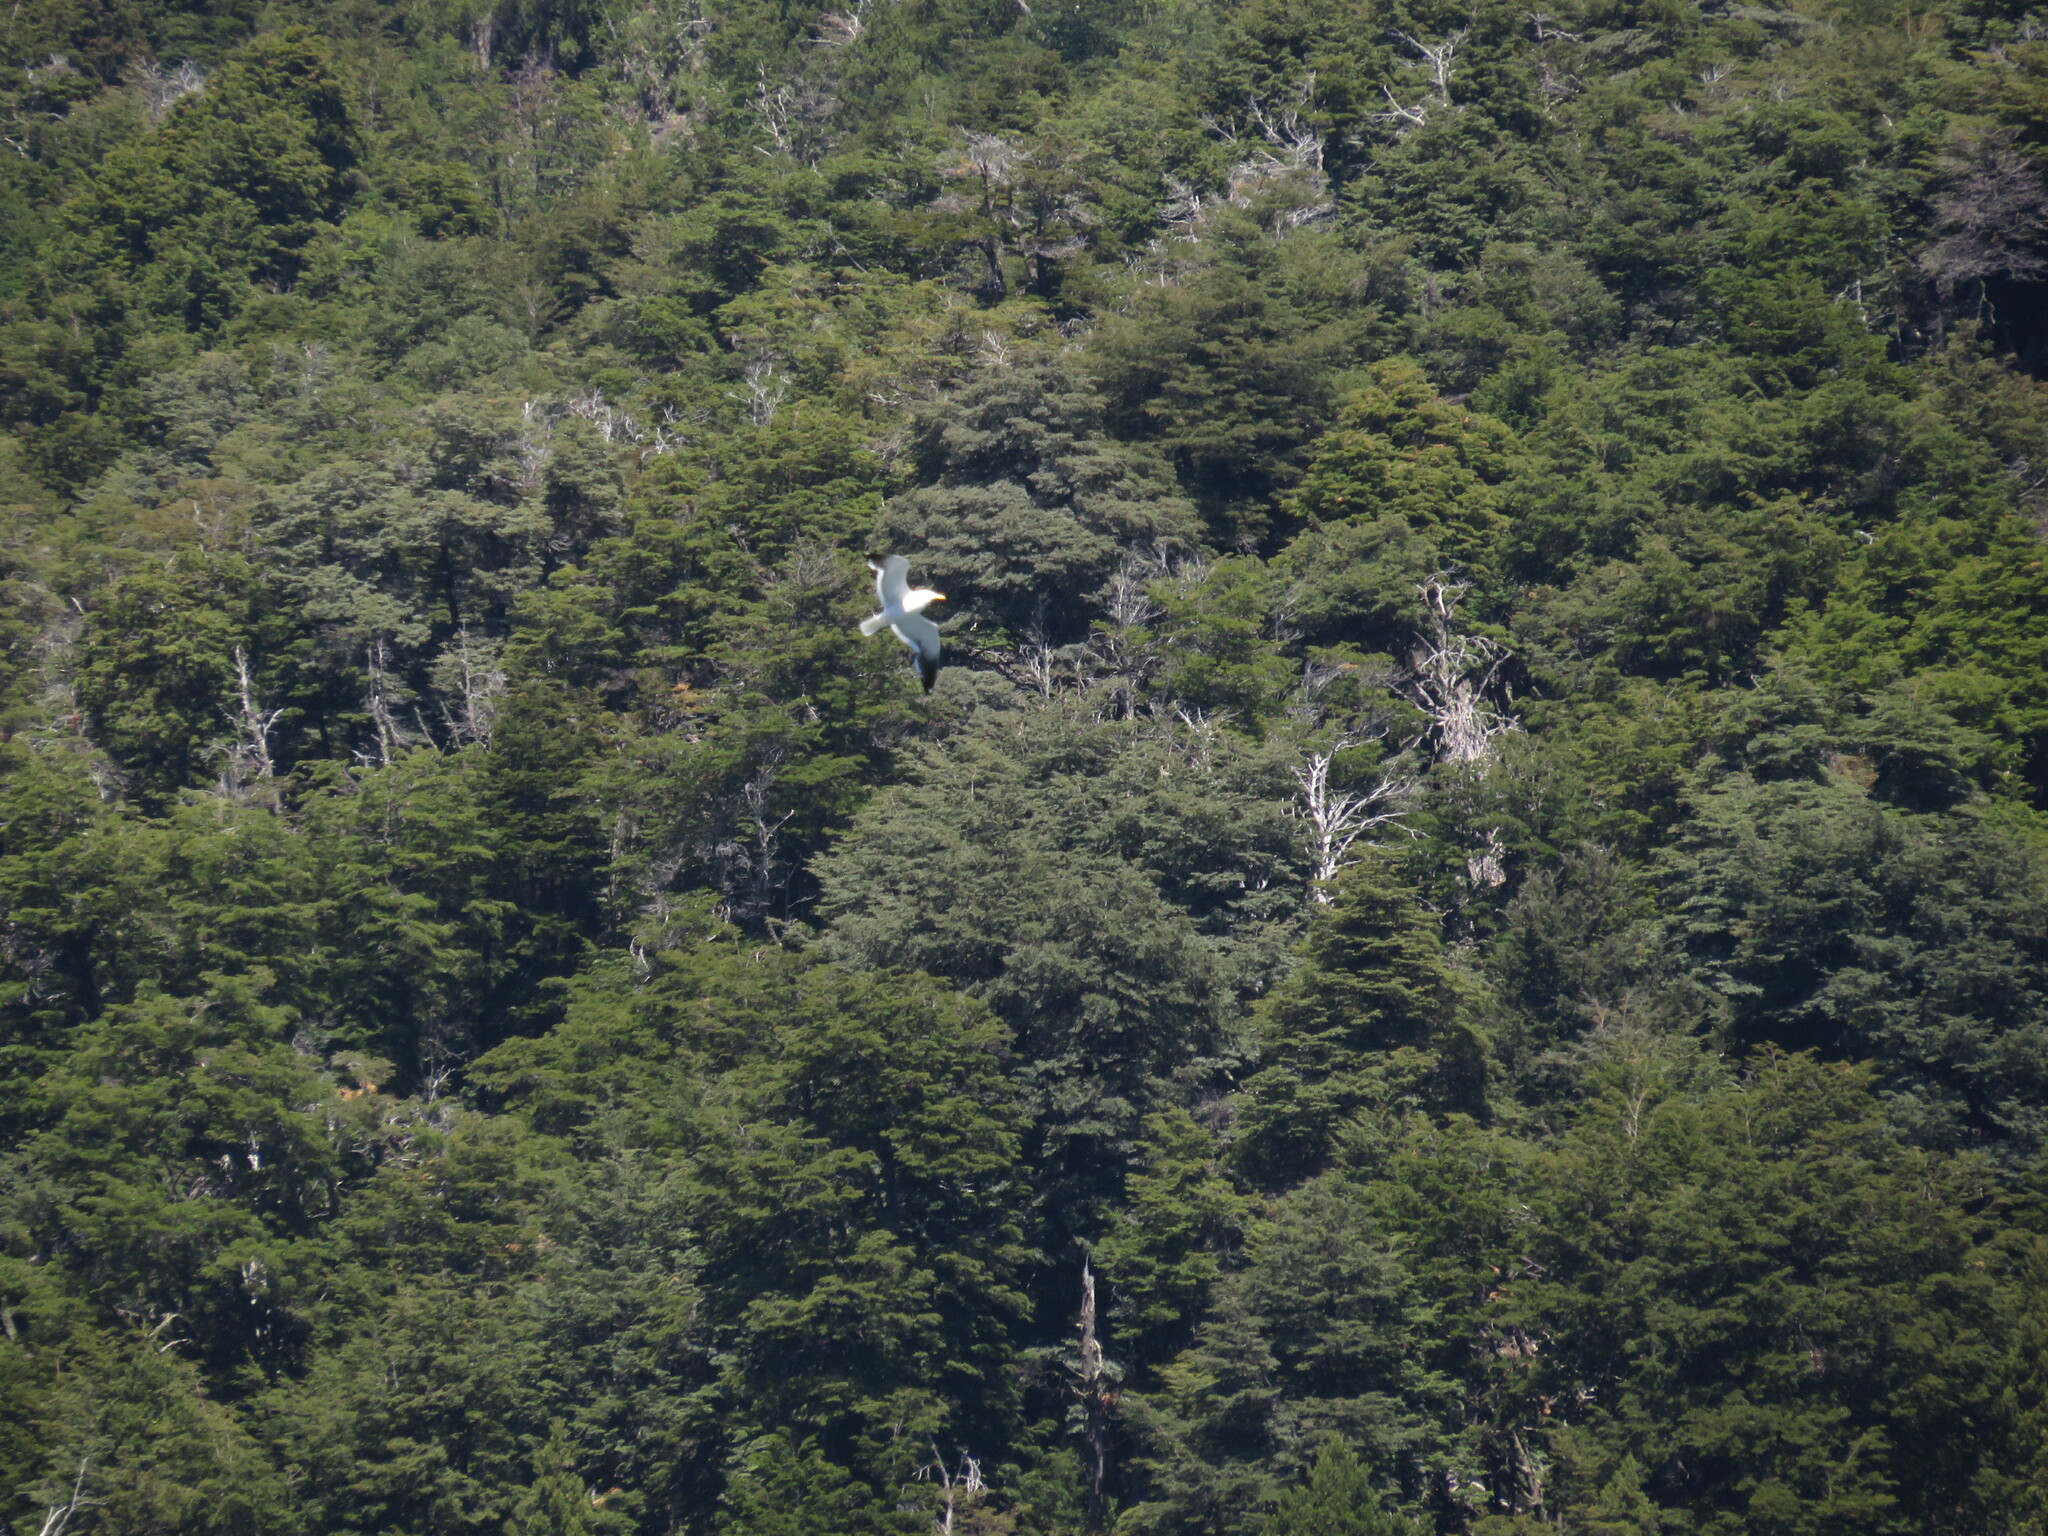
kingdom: Animalia
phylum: Chordata
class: Aves
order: Charadriiformes
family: Laridae
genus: Larus
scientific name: Larus dominicanus
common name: Kelp gull
